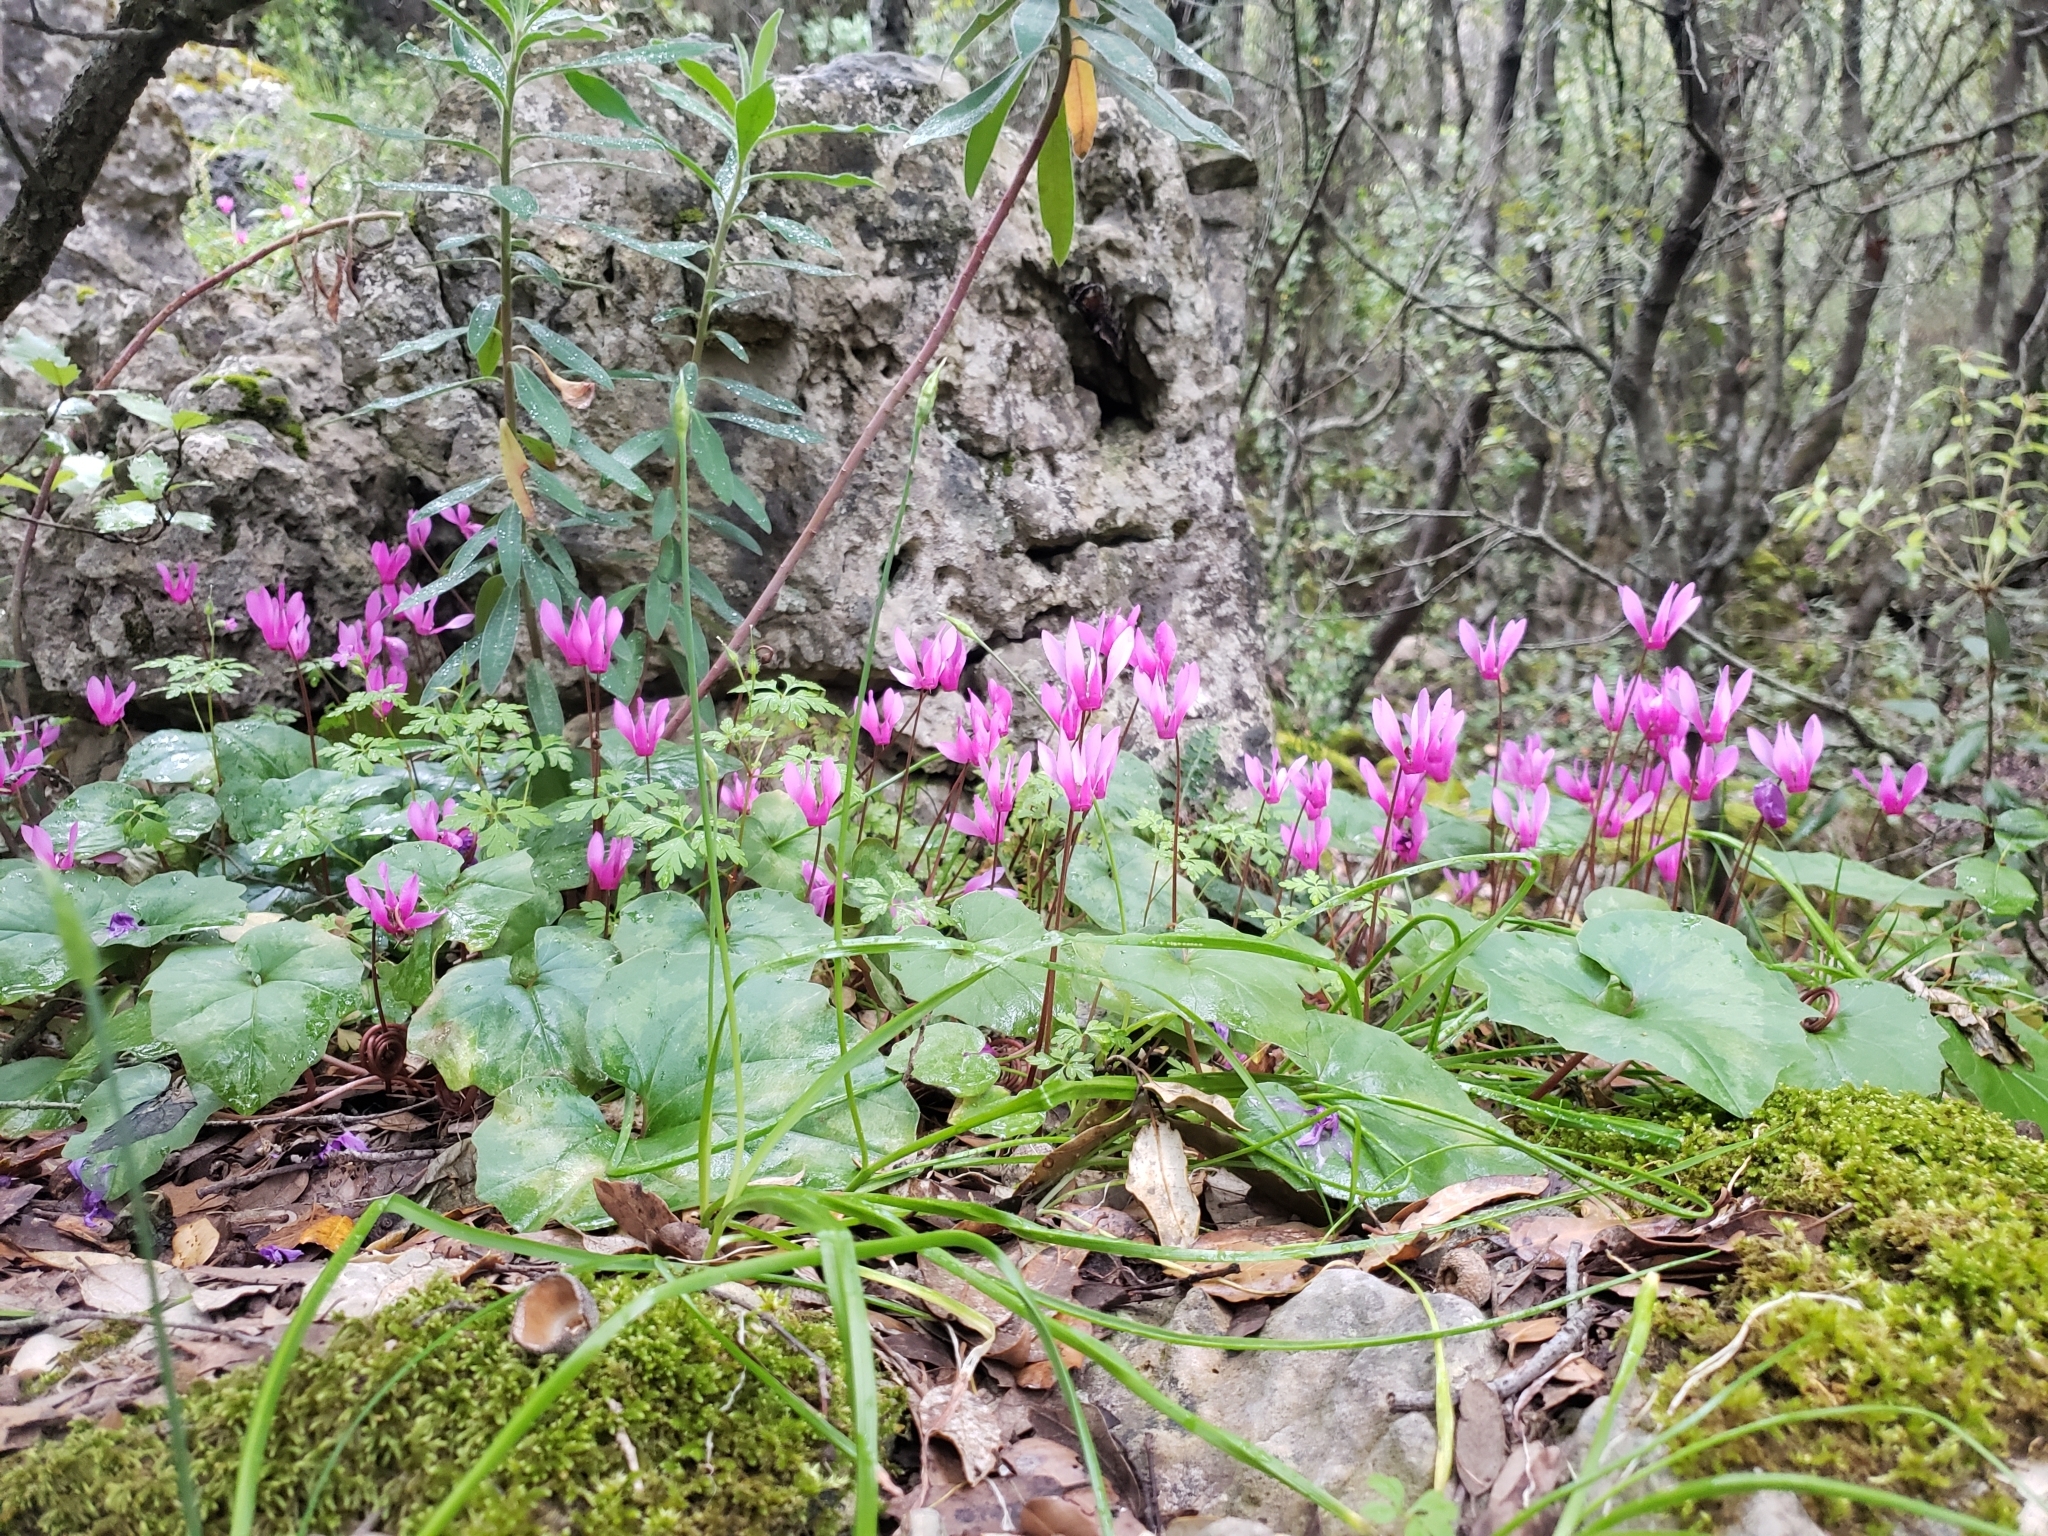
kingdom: Plantae
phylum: Tracheophyta
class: Magnoliopsida
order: Ericales
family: Primulaceae
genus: Cyclamen
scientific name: Cyclamen repandum
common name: Spring sowbread
